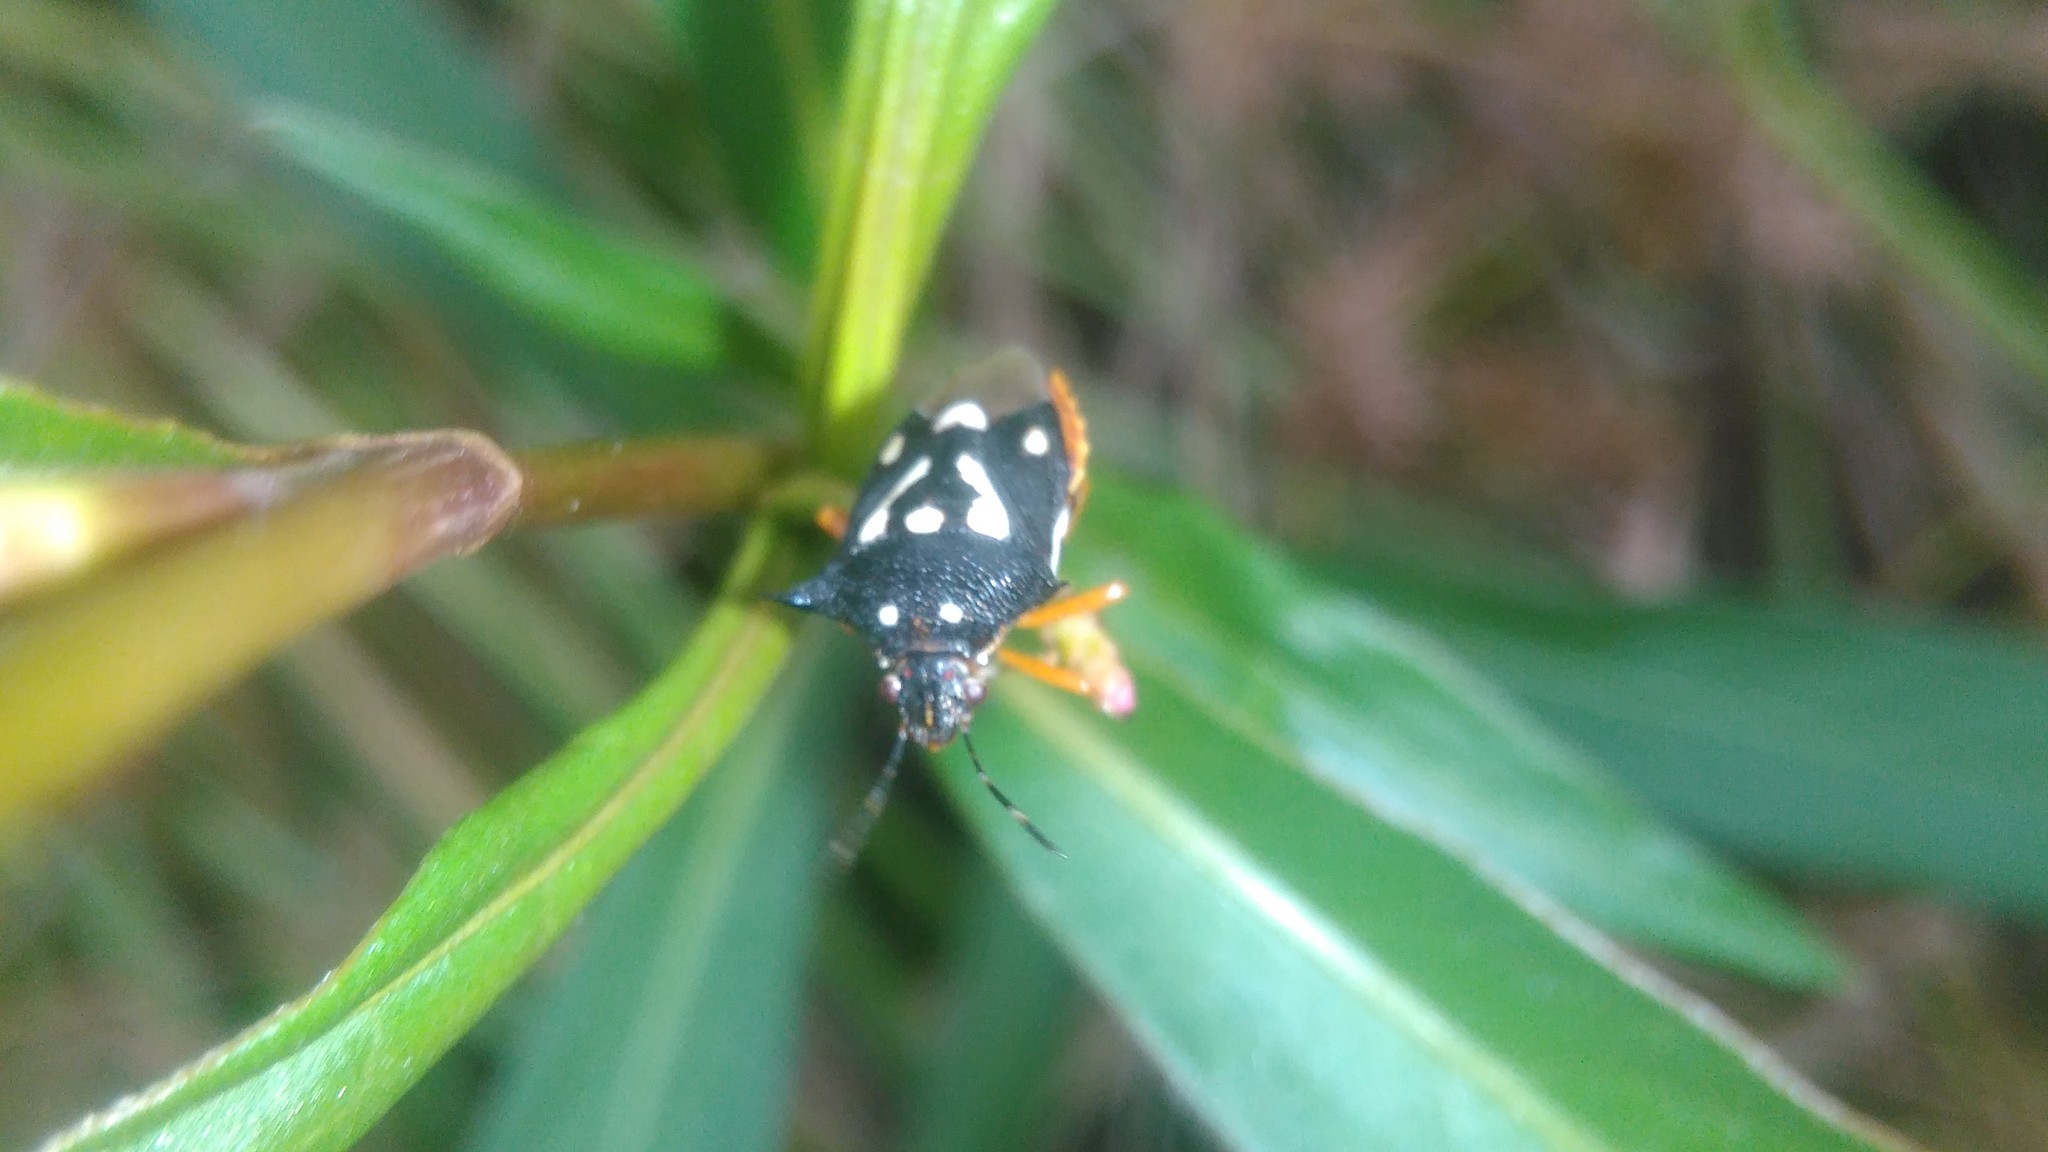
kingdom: Animalia
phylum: Arthropoda
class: Insecta
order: Hemiptera
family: Pentatomidae
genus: Mormidea
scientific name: Mormidea v-luteum
